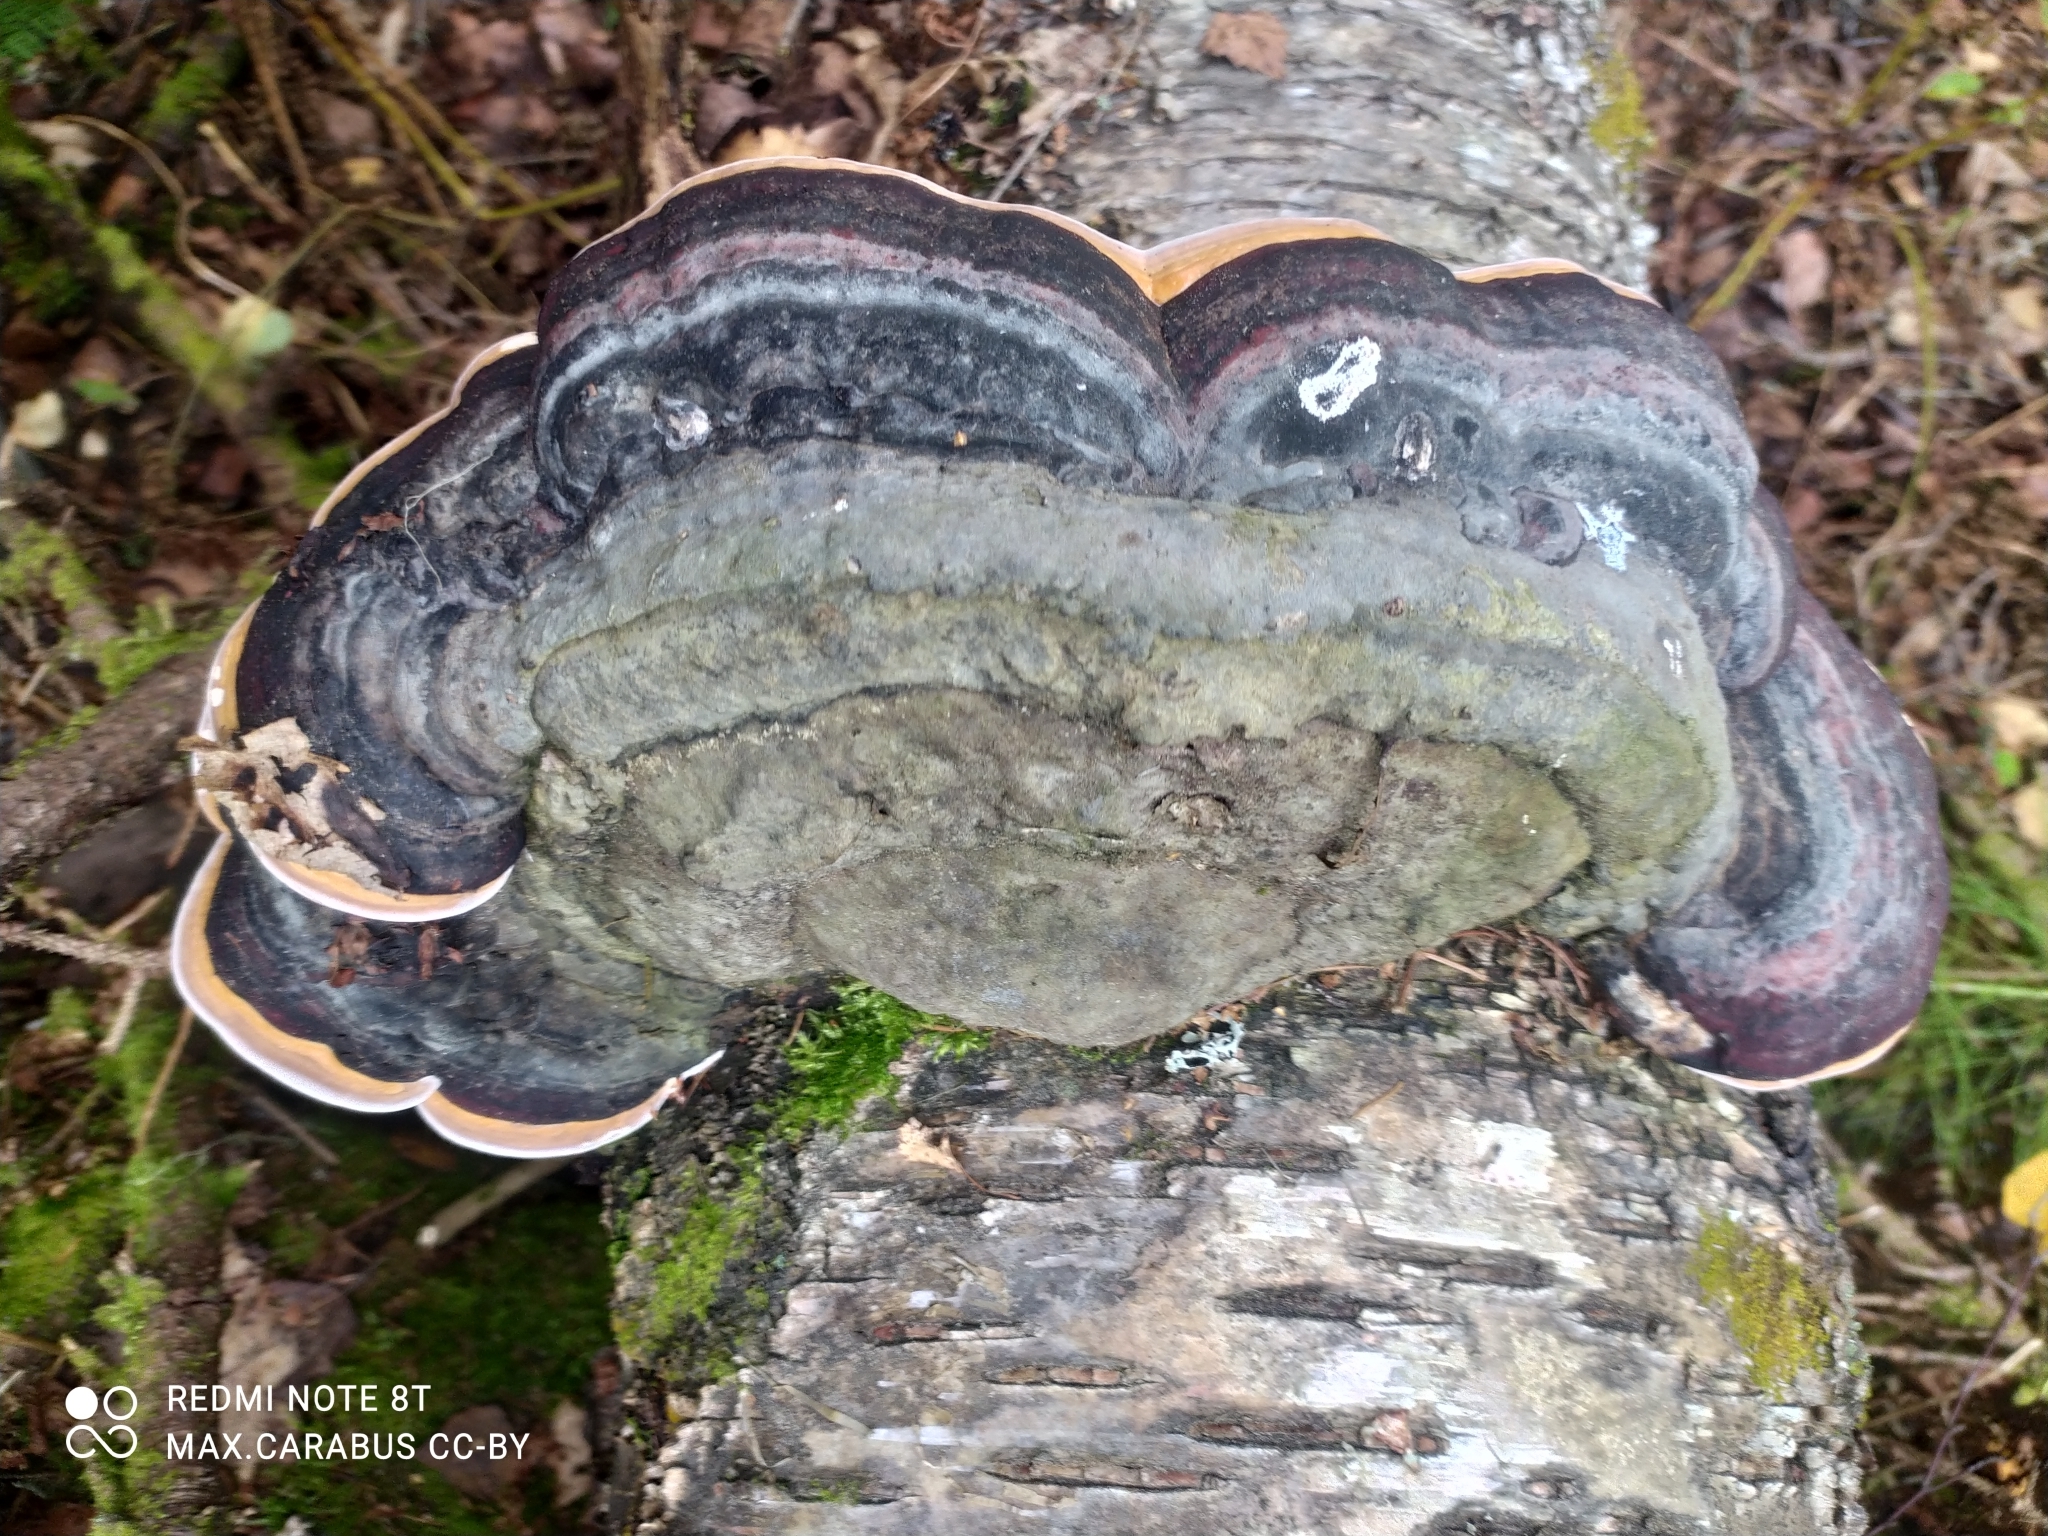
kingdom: Fungi
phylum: Basidiomycota
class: Agaricomycetes
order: Polyporales
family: Fomitopsidaceae
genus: Fomitopsis
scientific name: Fomitopsis pinicola
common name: Red-belted bracket
